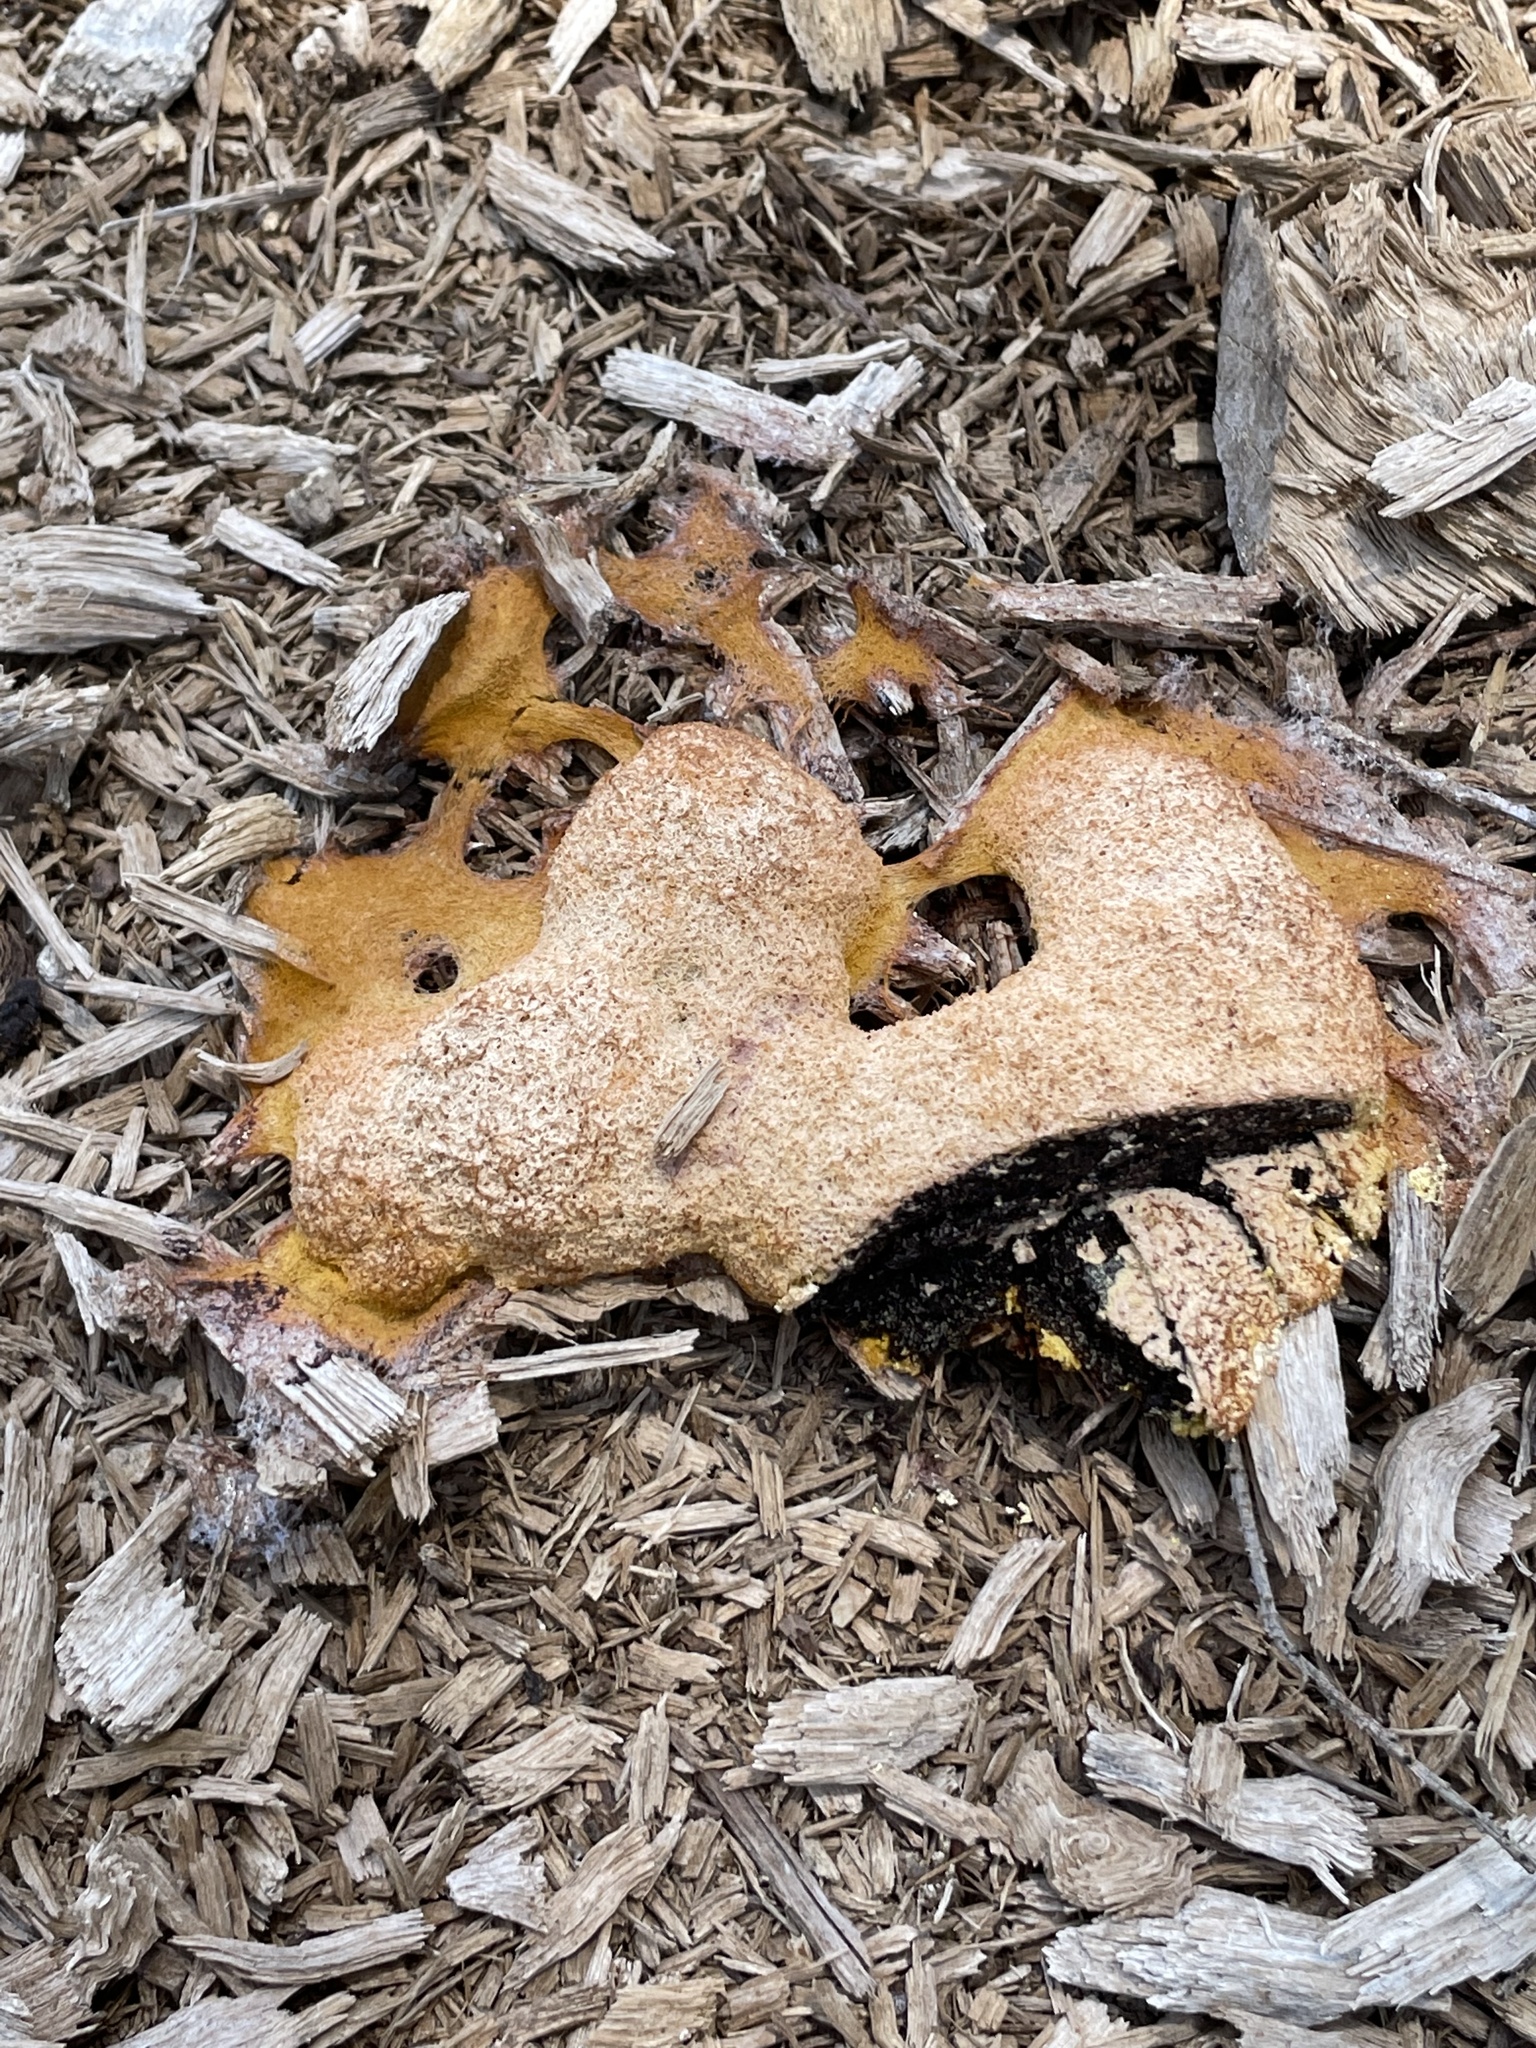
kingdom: Protozoa
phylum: Mycetozoa
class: Myxomycetes
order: Physarales
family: Physaraceae
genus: Fuligo
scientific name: Fuligo septica
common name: Dog vomit slime mold
